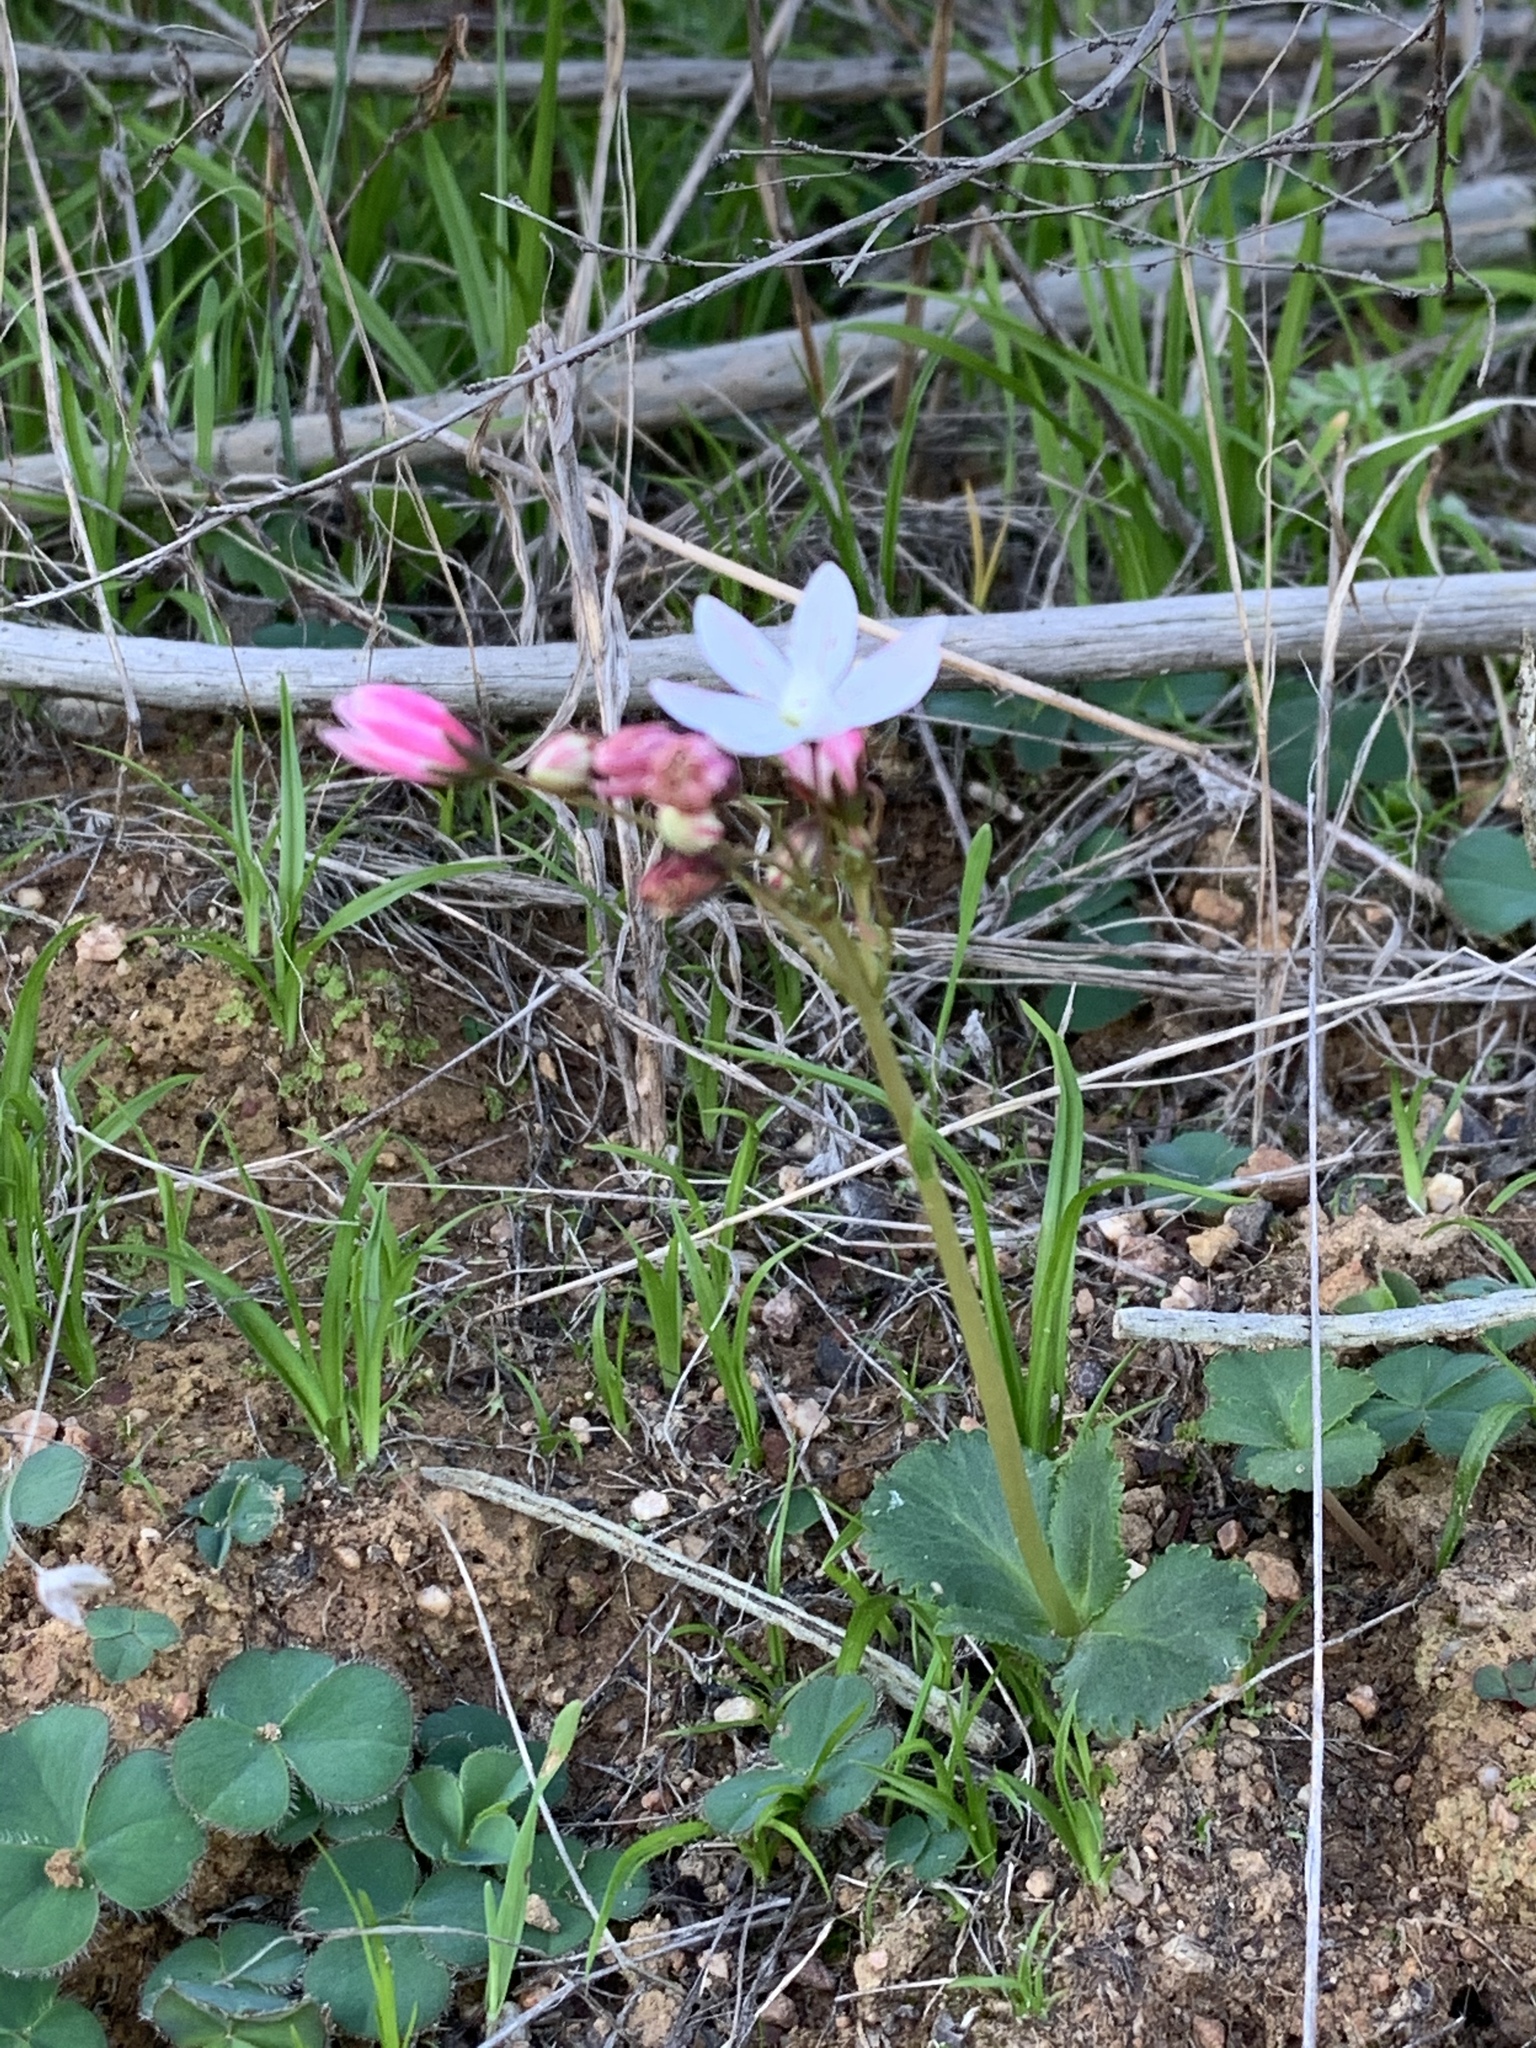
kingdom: Plantae
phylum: Tracheophyta
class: Magnoliopsida
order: Saxifragales
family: Crassulaceae
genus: Crassula
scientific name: Crassula capensis
